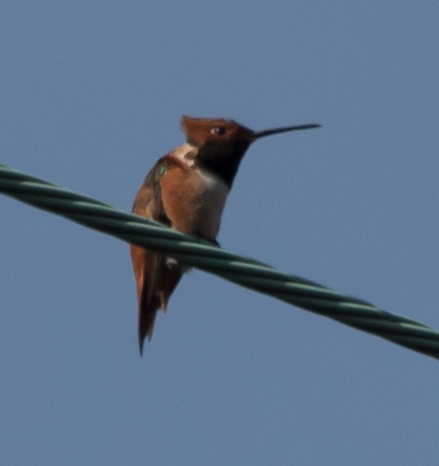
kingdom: Animalia
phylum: Chordata
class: Aves
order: Apodiformes
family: Trochilidae
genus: Selasphorus
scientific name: Selasphorus
